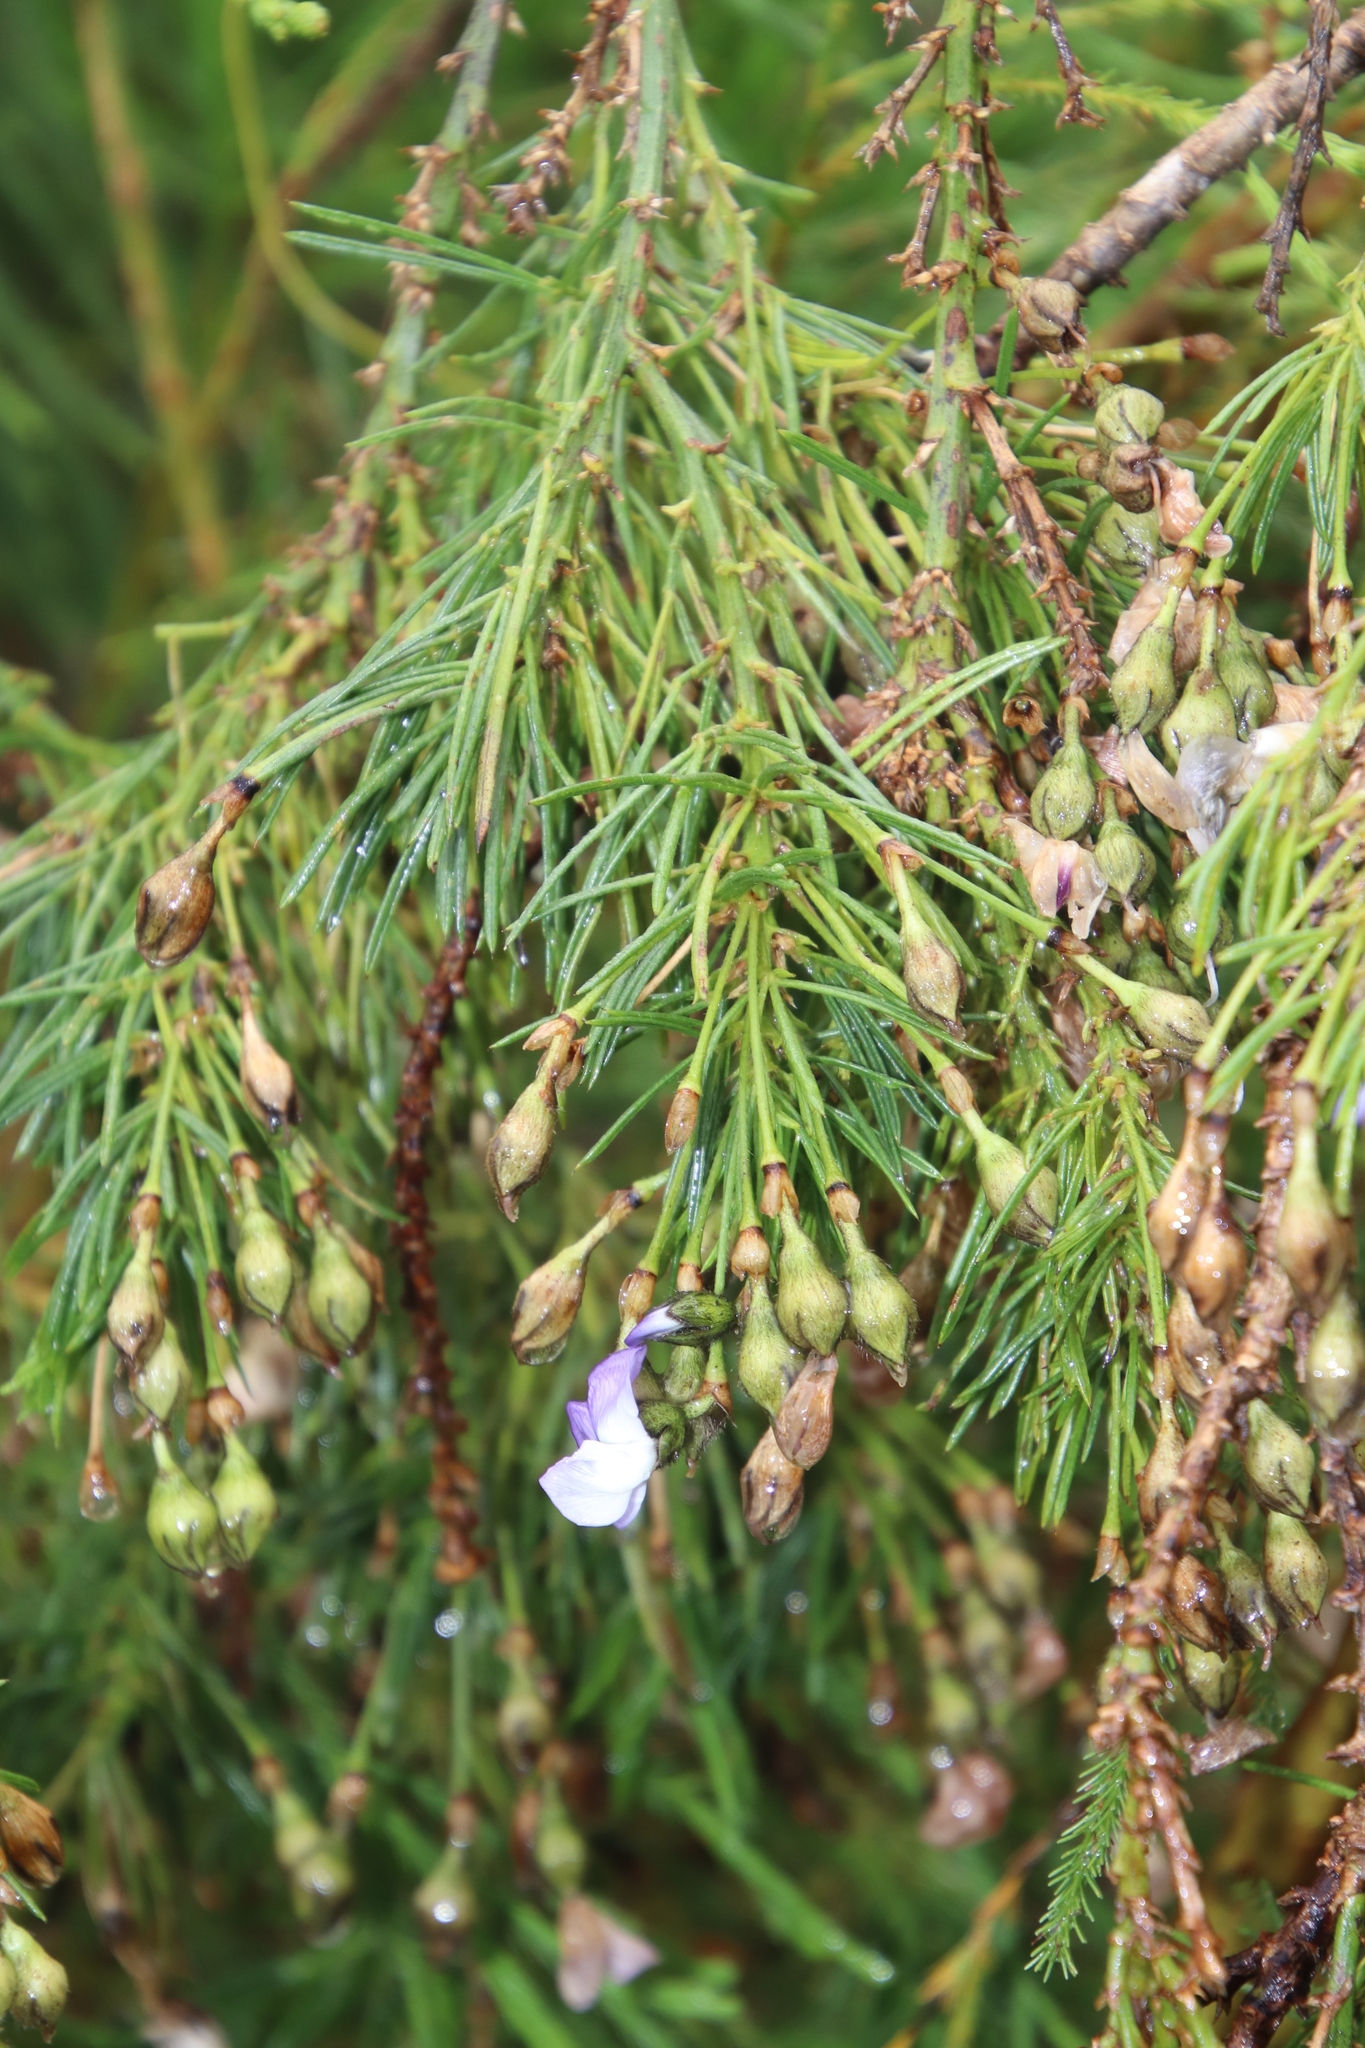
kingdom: Plantae
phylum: Tracheophyta
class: Magnoliopsida
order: Fabales
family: Fabaceae
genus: Psoralea
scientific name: Psoralea arborea
